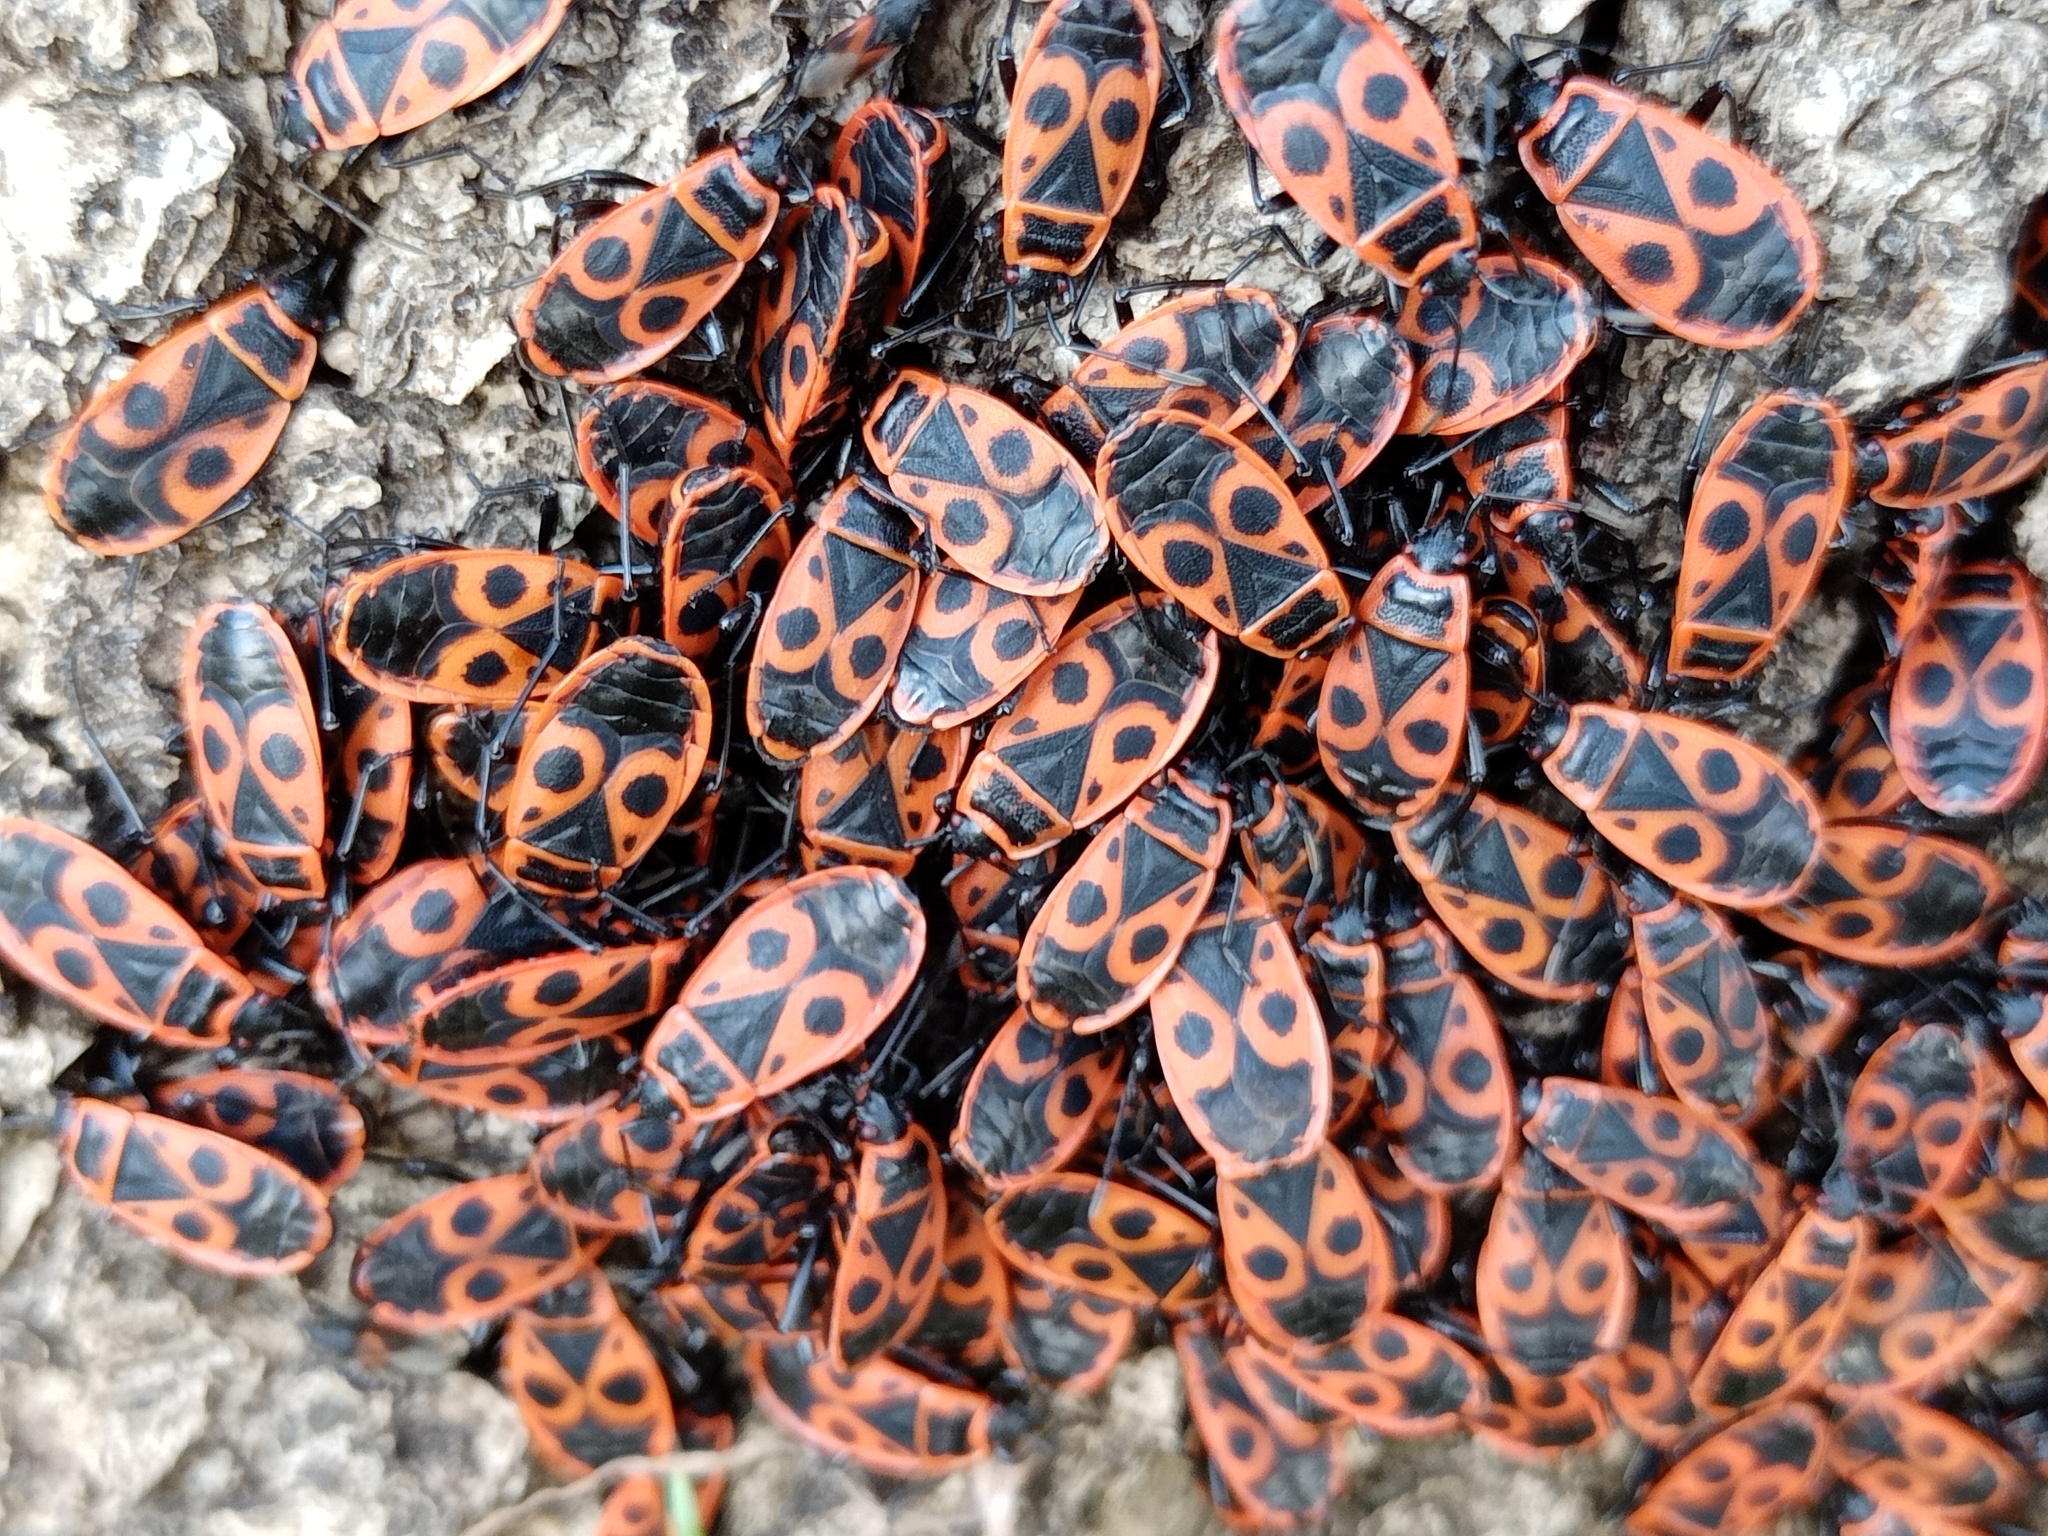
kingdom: Animalia
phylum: Arthropoda
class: Insecta
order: Hemiptera
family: Pyrrhocoridae
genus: Pyrrhocoris
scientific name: Pyrrhocoris apterus
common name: Firebug
